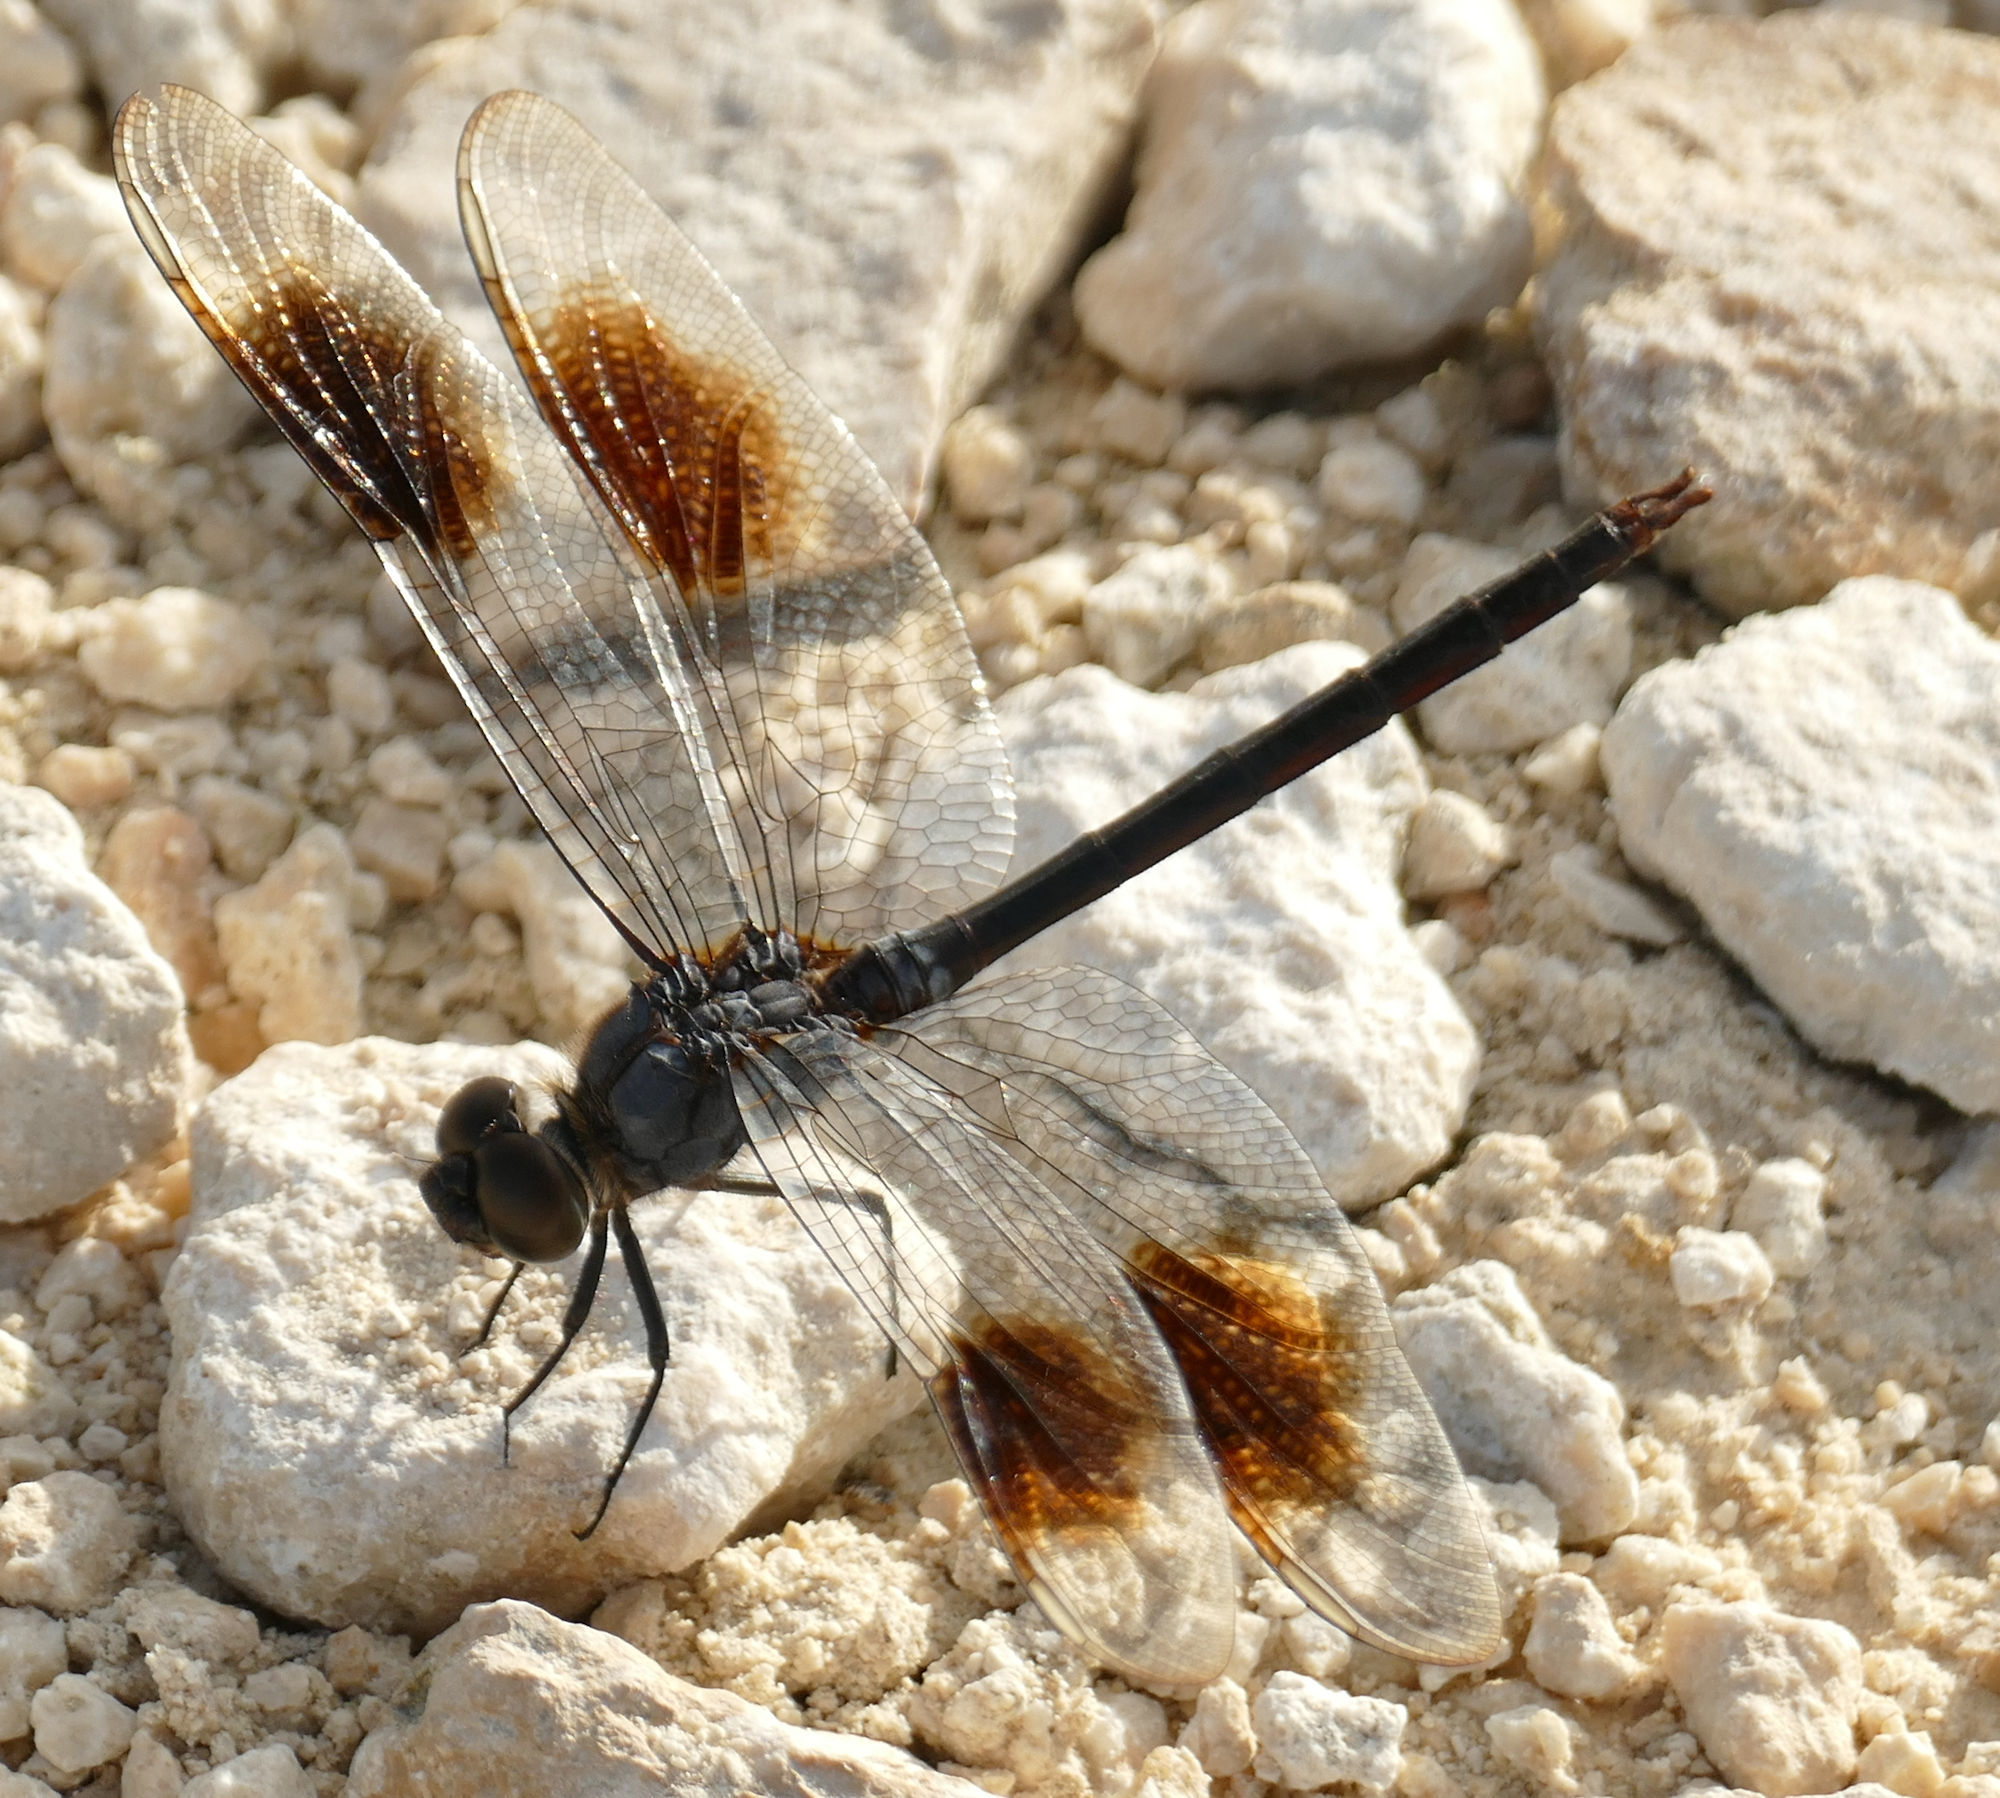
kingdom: Animalia
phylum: Arthropoda
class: Insecta
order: Odonata
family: Libellulidae
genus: Brachymesia
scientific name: Brachymesia gravida
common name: Four-spotted pennant
